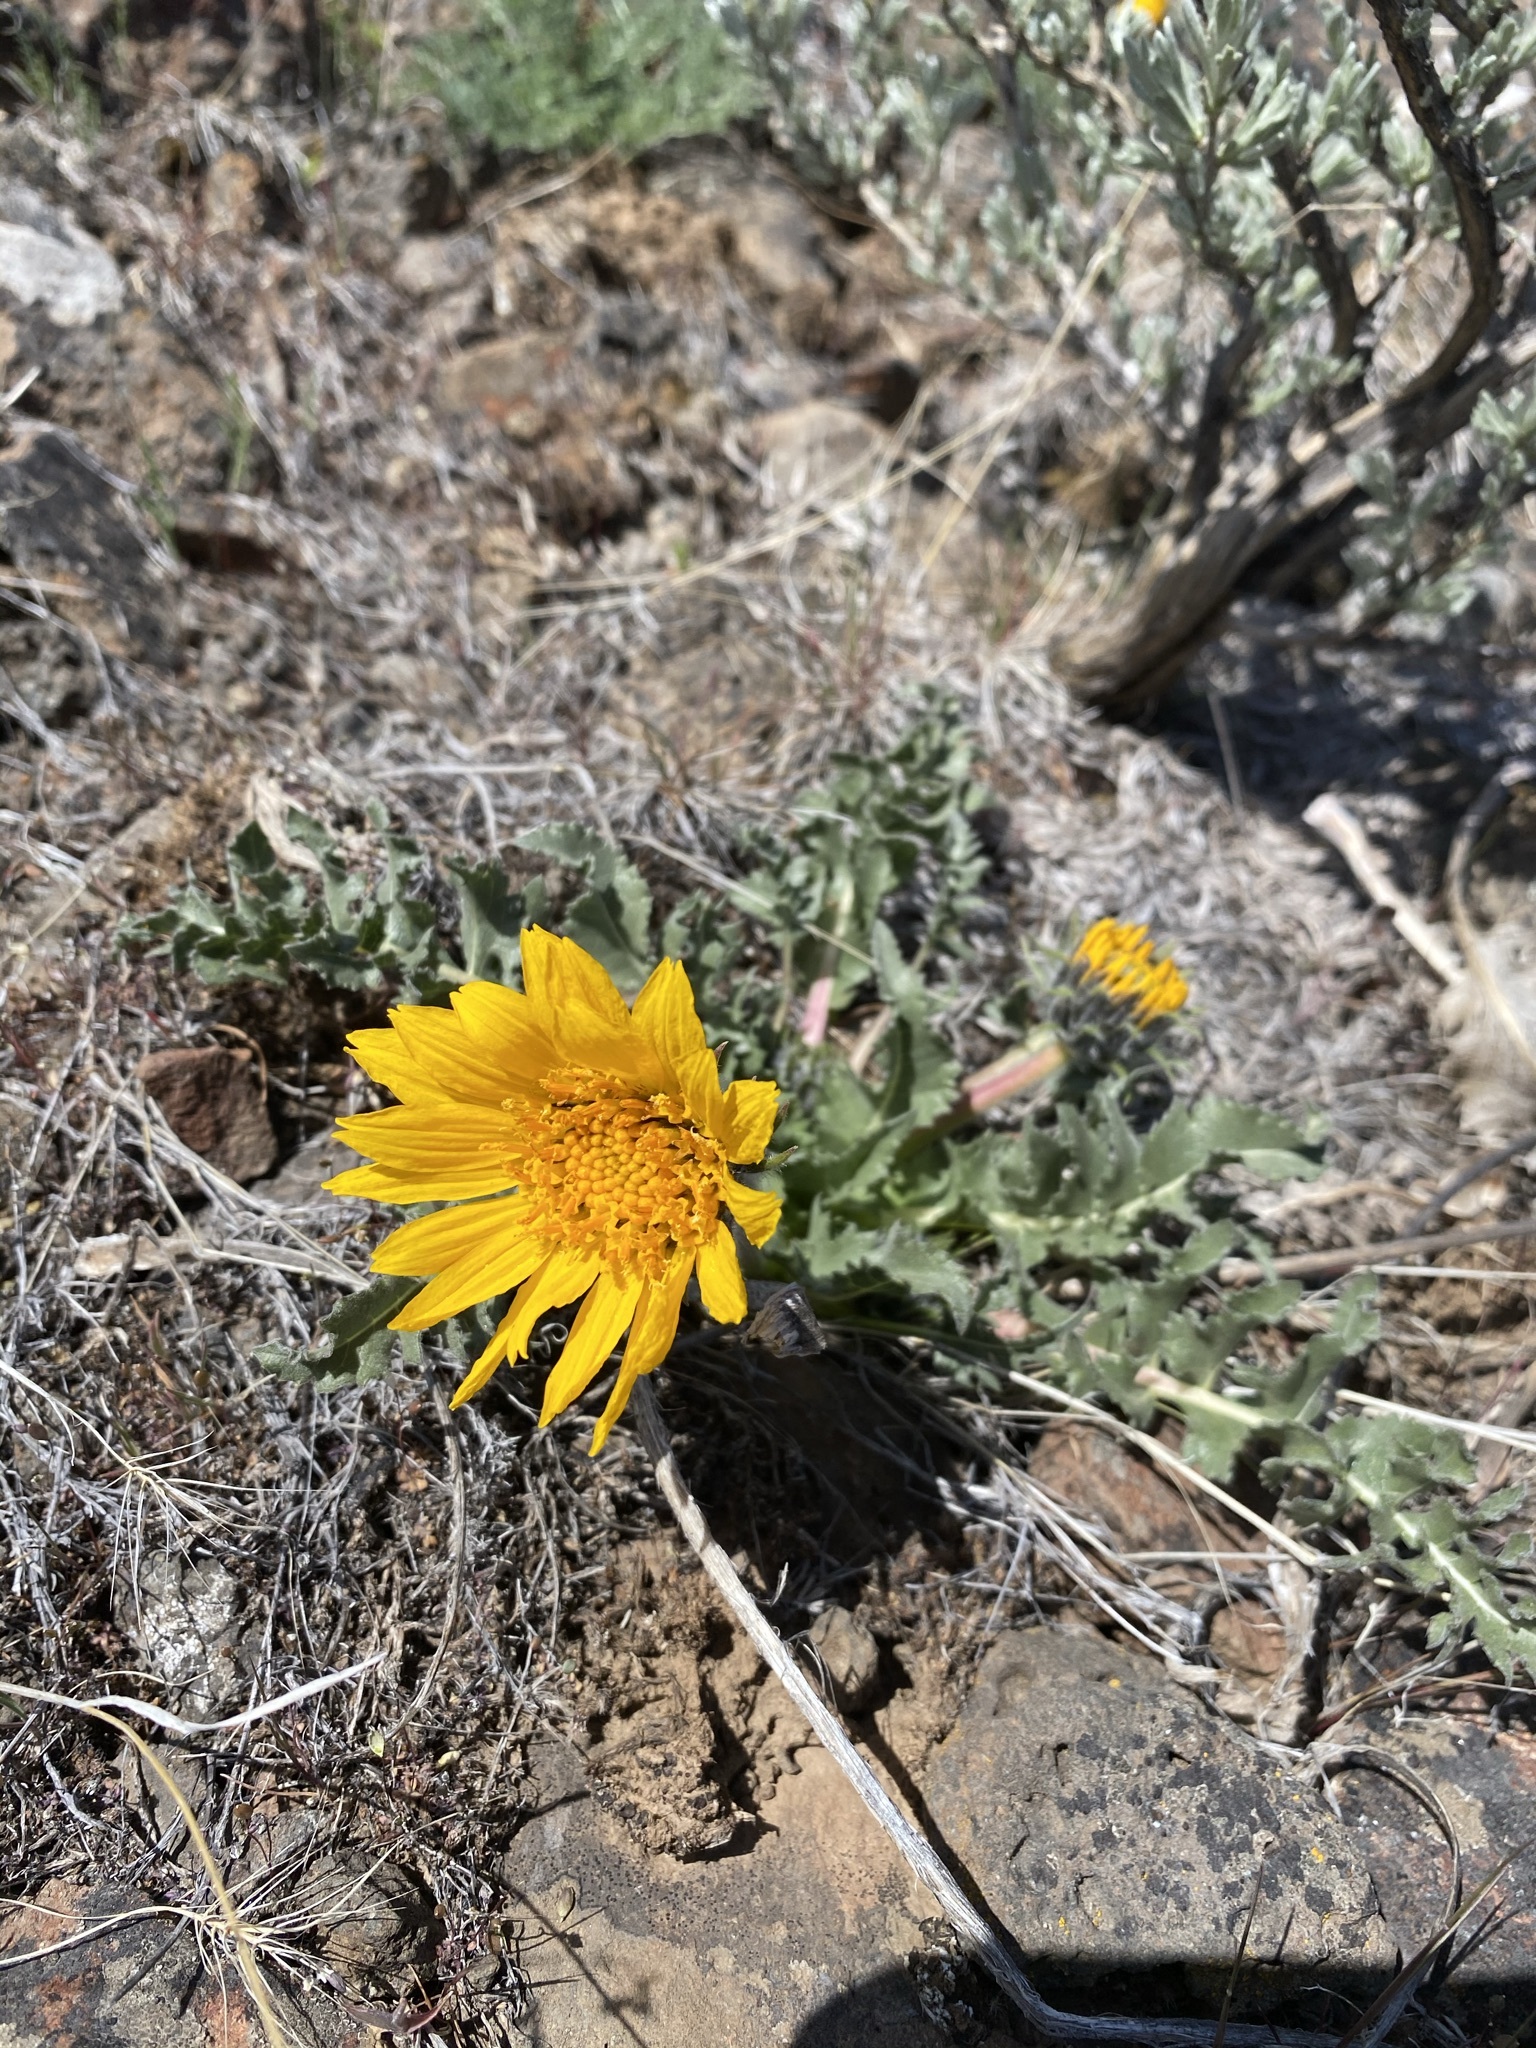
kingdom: Plantae
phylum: Tracheophyta
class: Magnoliopsida
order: Asterales
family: Asteraceae
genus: Balsamorhiza
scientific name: Balsamorhiza serrata
